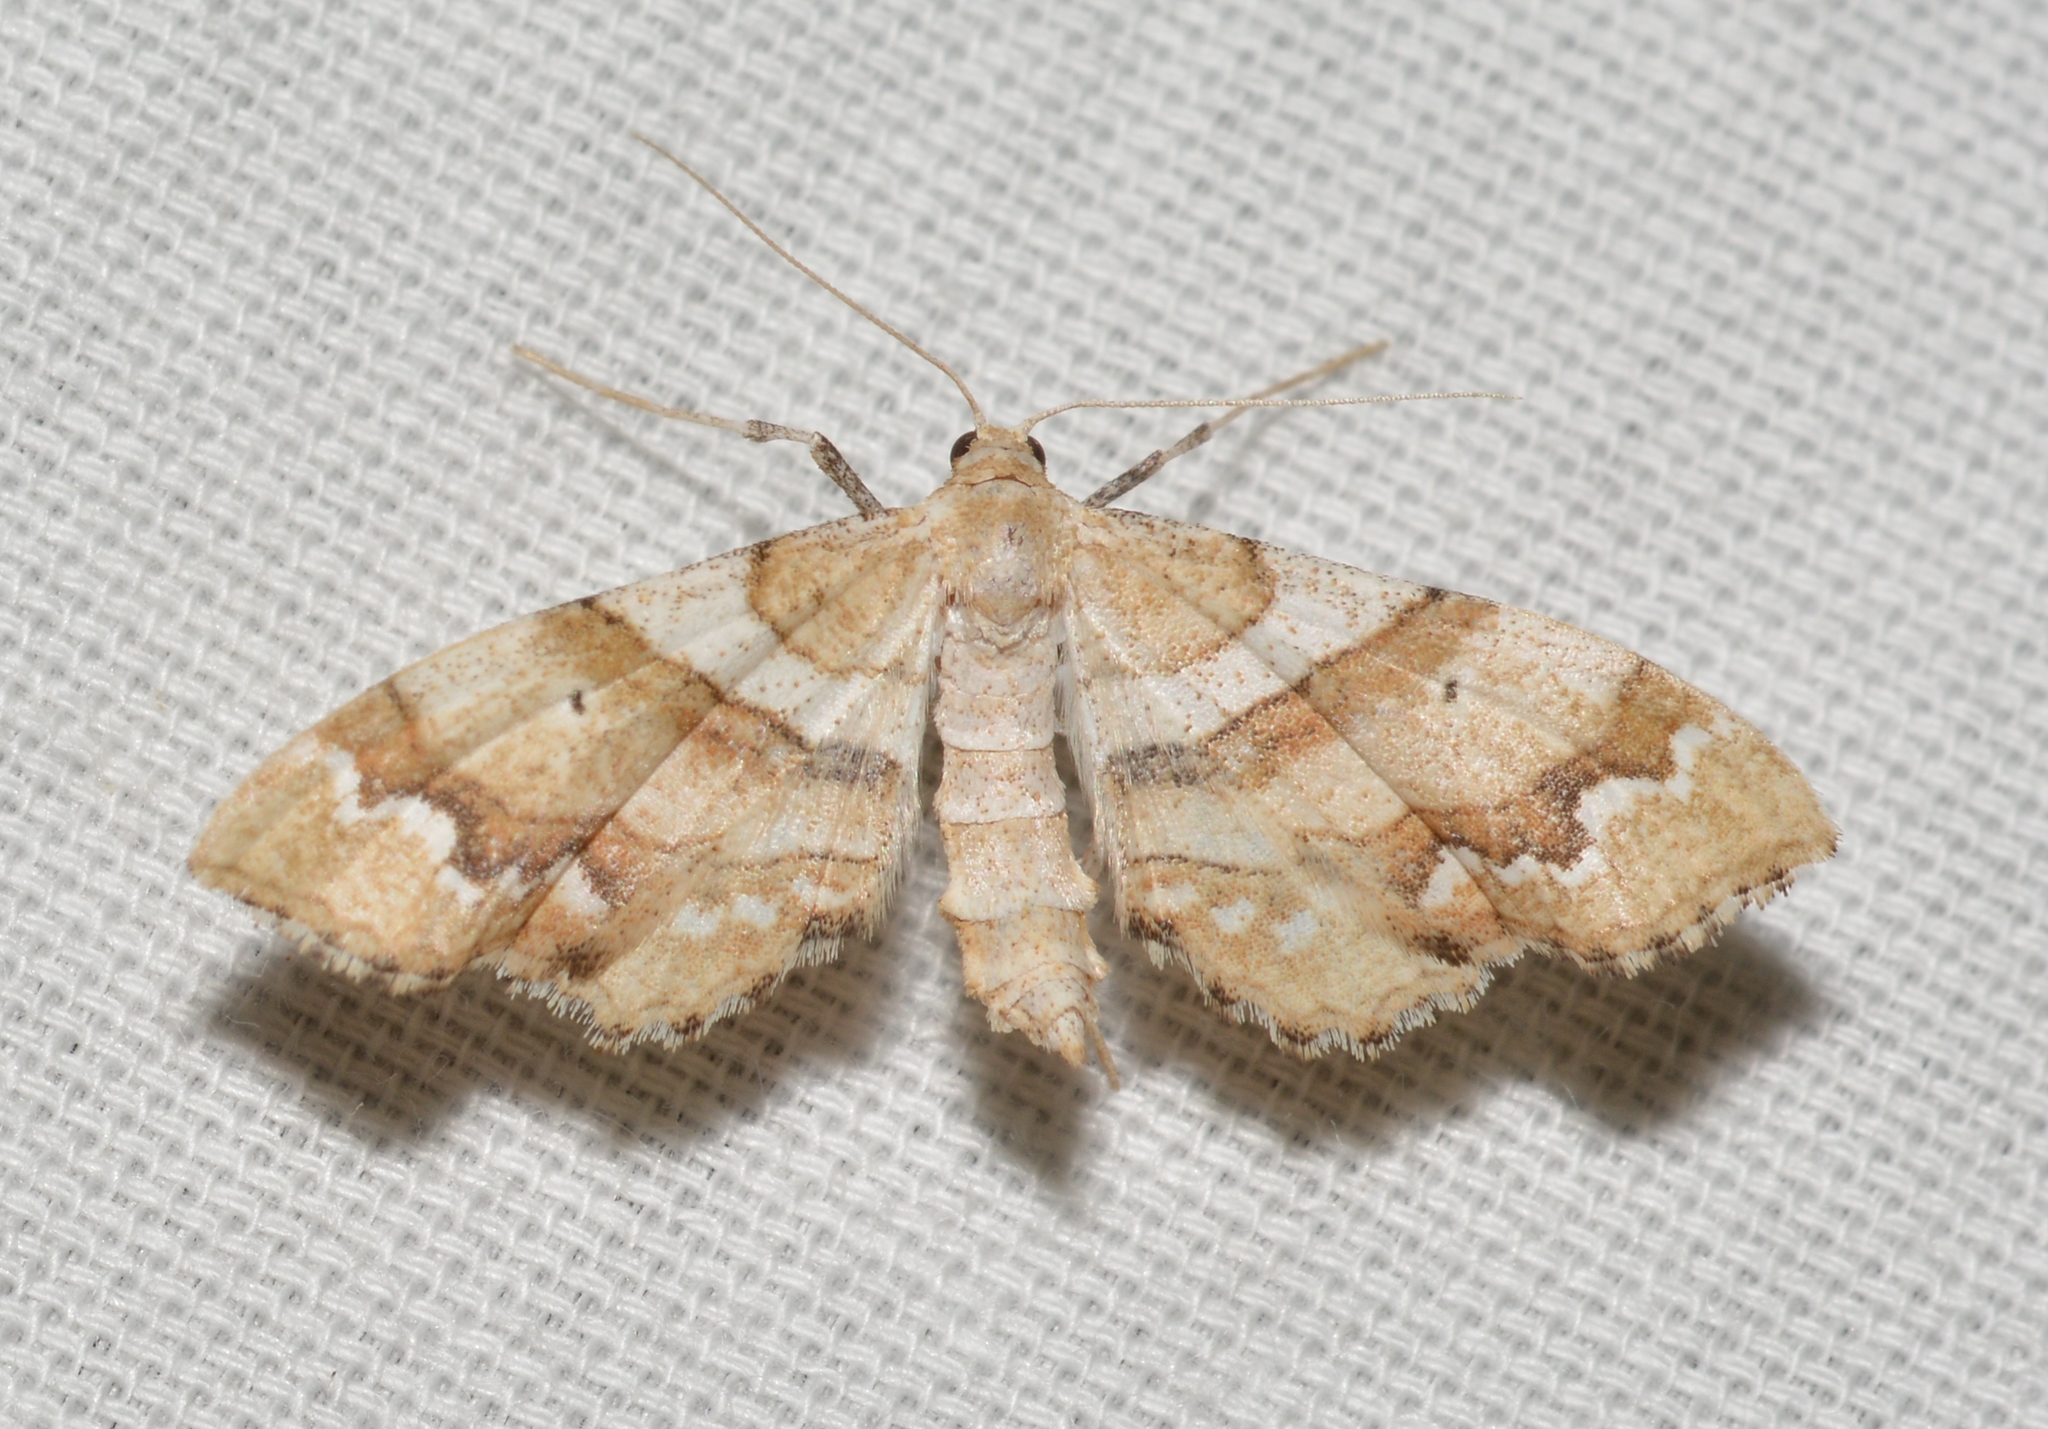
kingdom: Animalia
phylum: Arthropoda
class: Insecta
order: Lepidoptera
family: Geometridae
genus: Odontoptila
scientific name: Odontoptila obrimo
